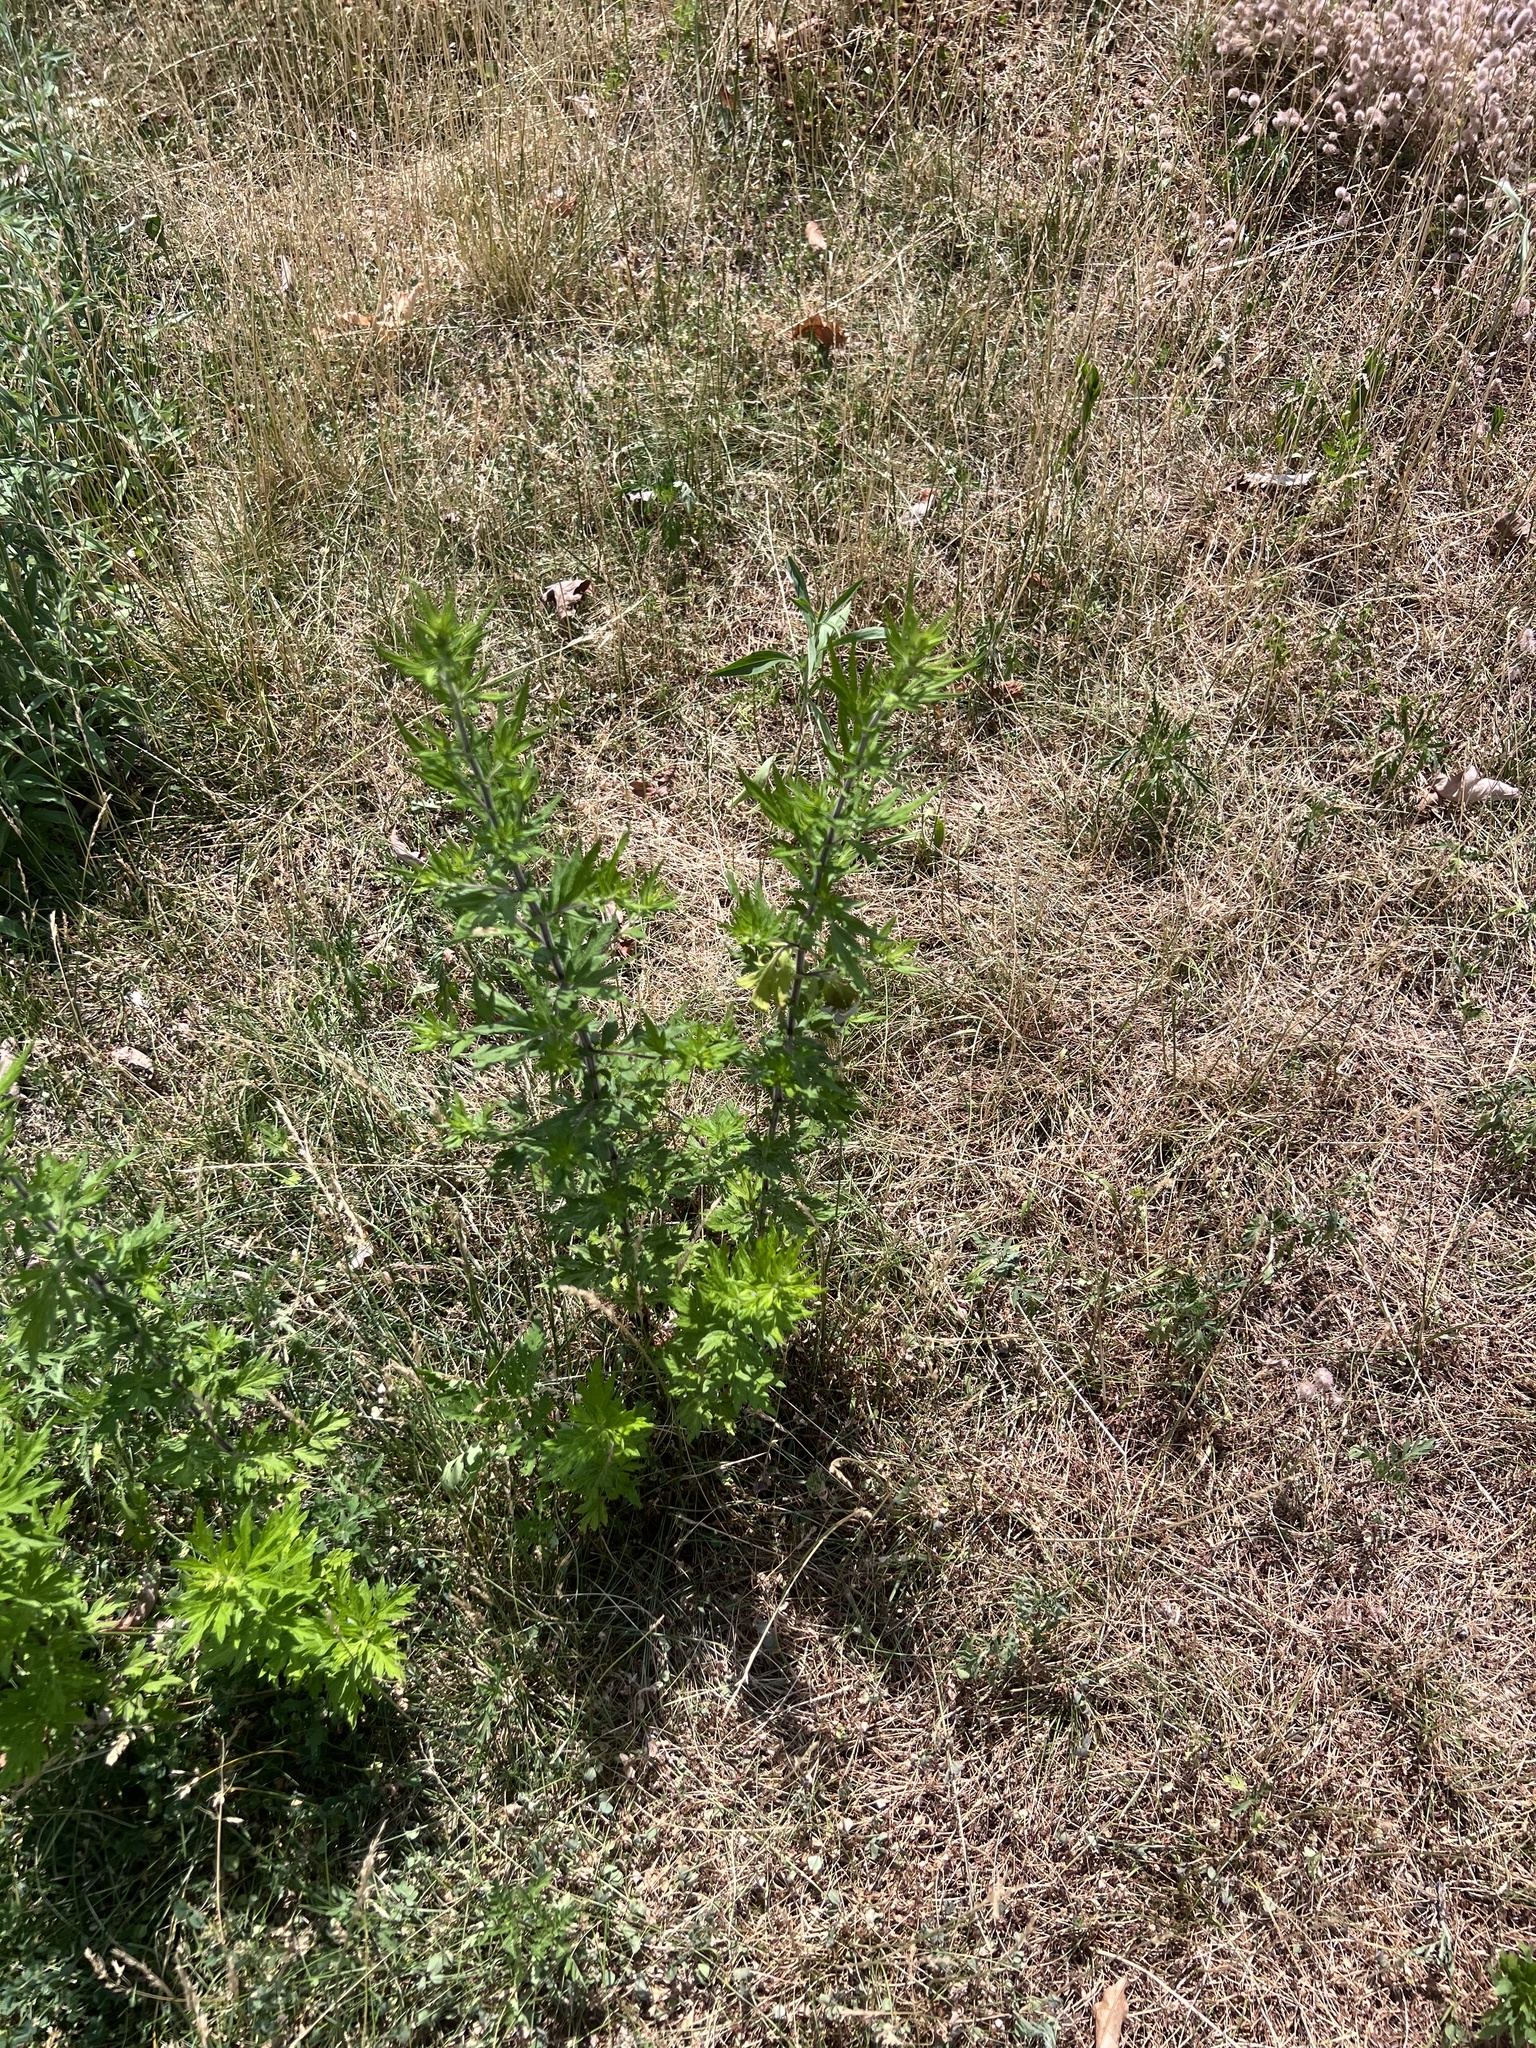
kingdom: Plantae
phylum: Tracheophyta
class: Magnoliopsida
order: Asterales
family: Asteraceae
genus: Artemisia
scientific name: Artemisia vulgaris
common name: Mugwort
